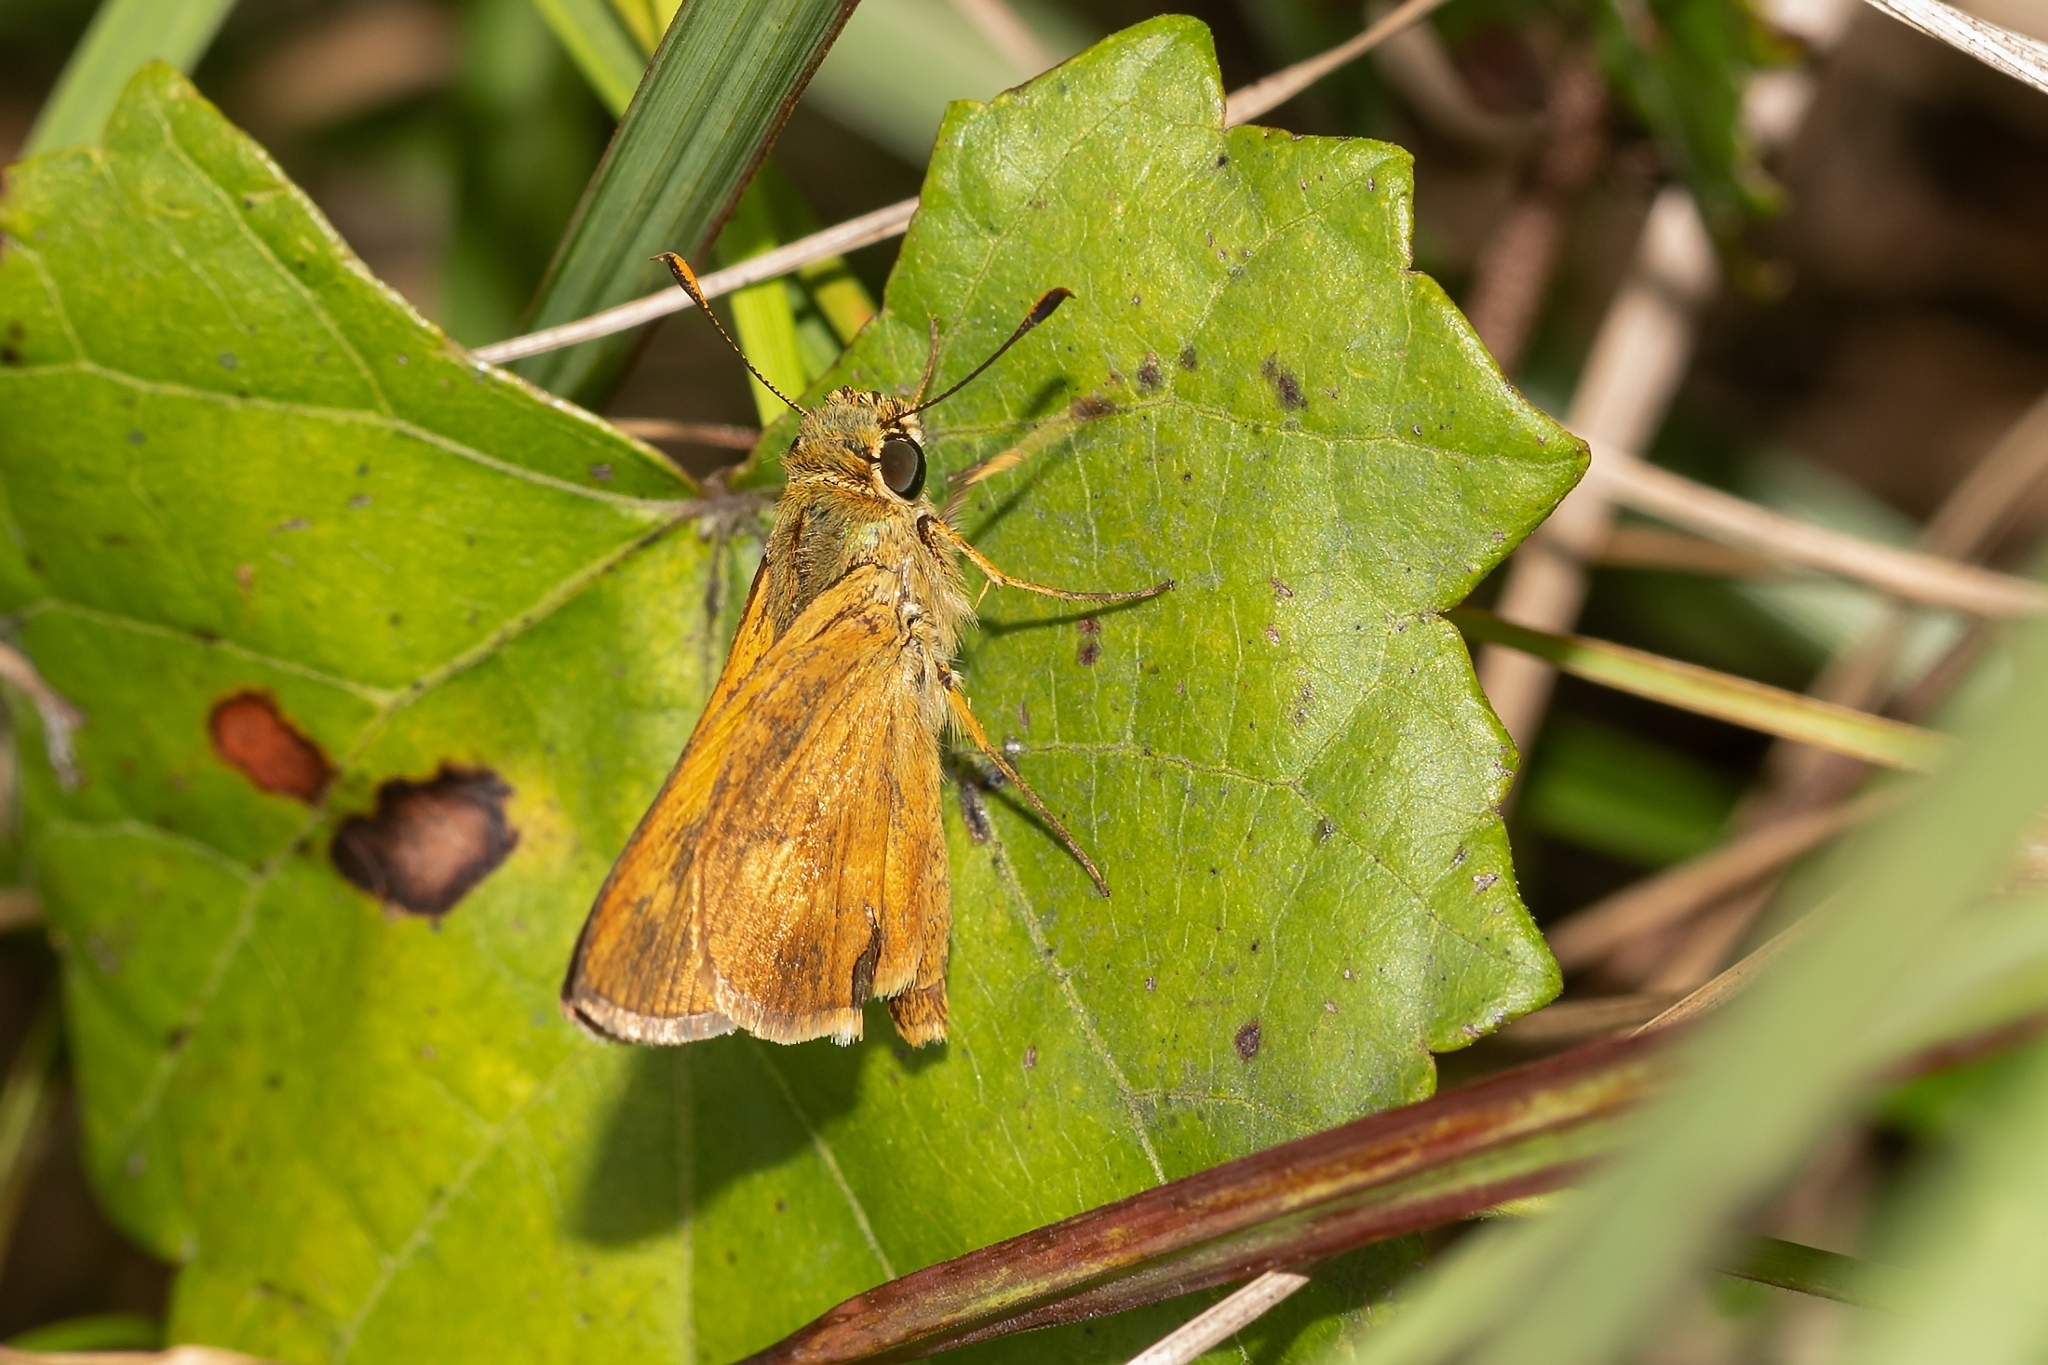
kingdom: Animalia
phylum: Arthropoda
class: Insecta
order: Lepidoptera
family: Hesperiidae
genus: Polites
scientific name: Polites otho
